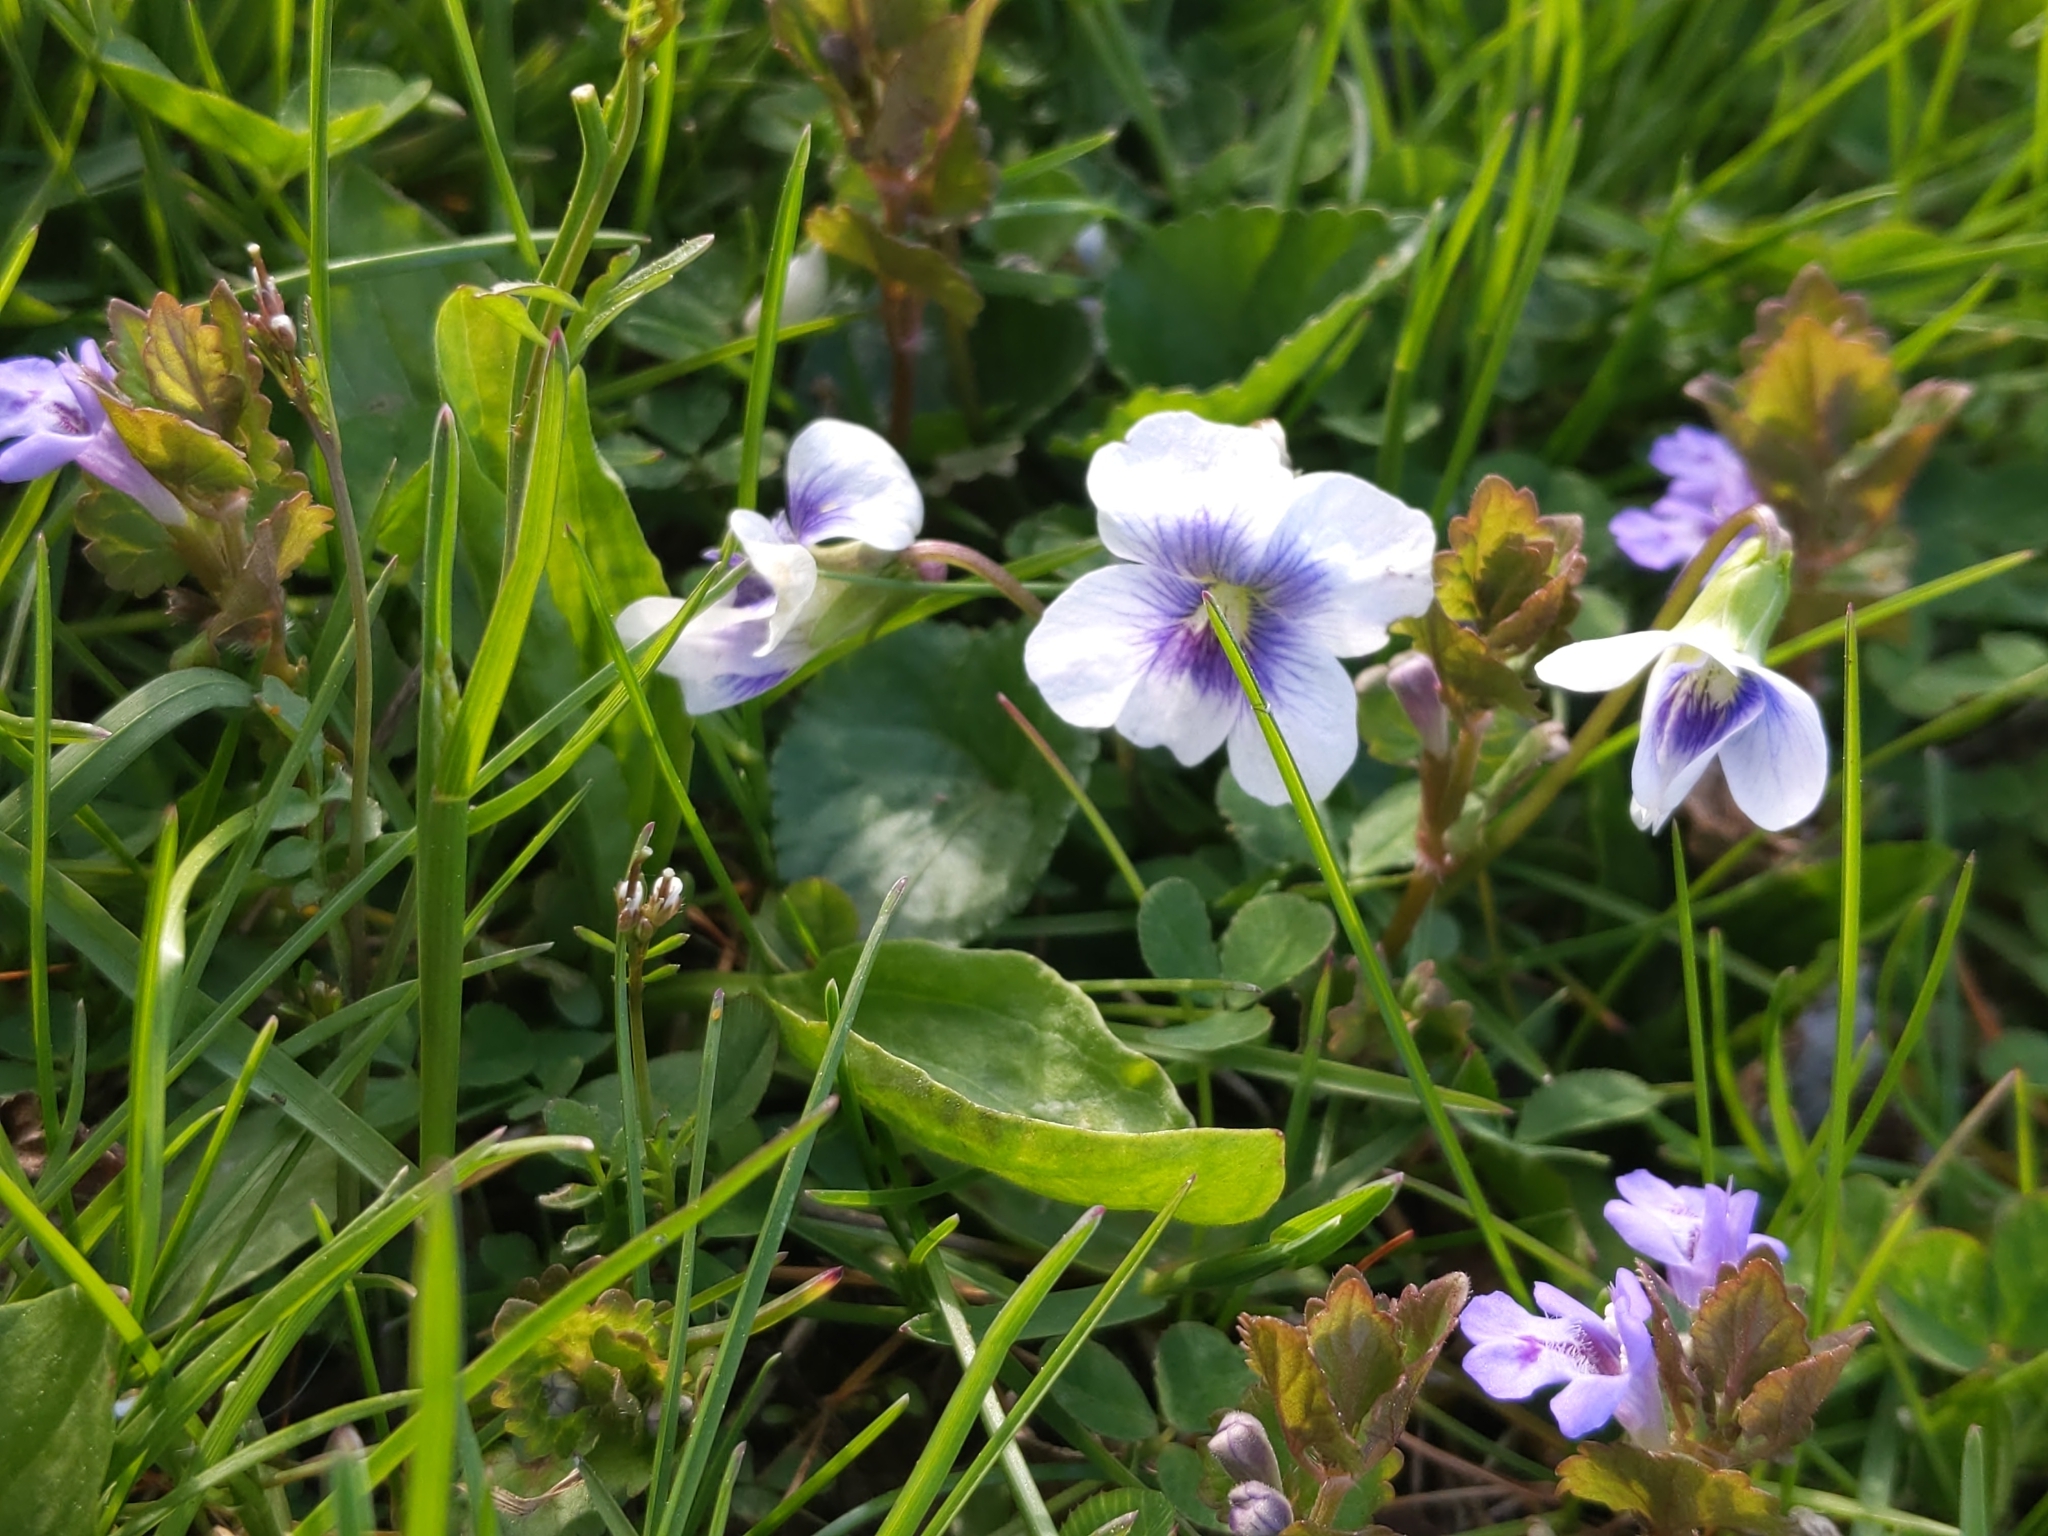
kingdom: Plantae
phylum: Tracheophyta
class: Magnoliopsida
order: Malpighiales
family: Violaceae
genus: Viola
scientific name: Viola sororia
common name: Dooryard violet
